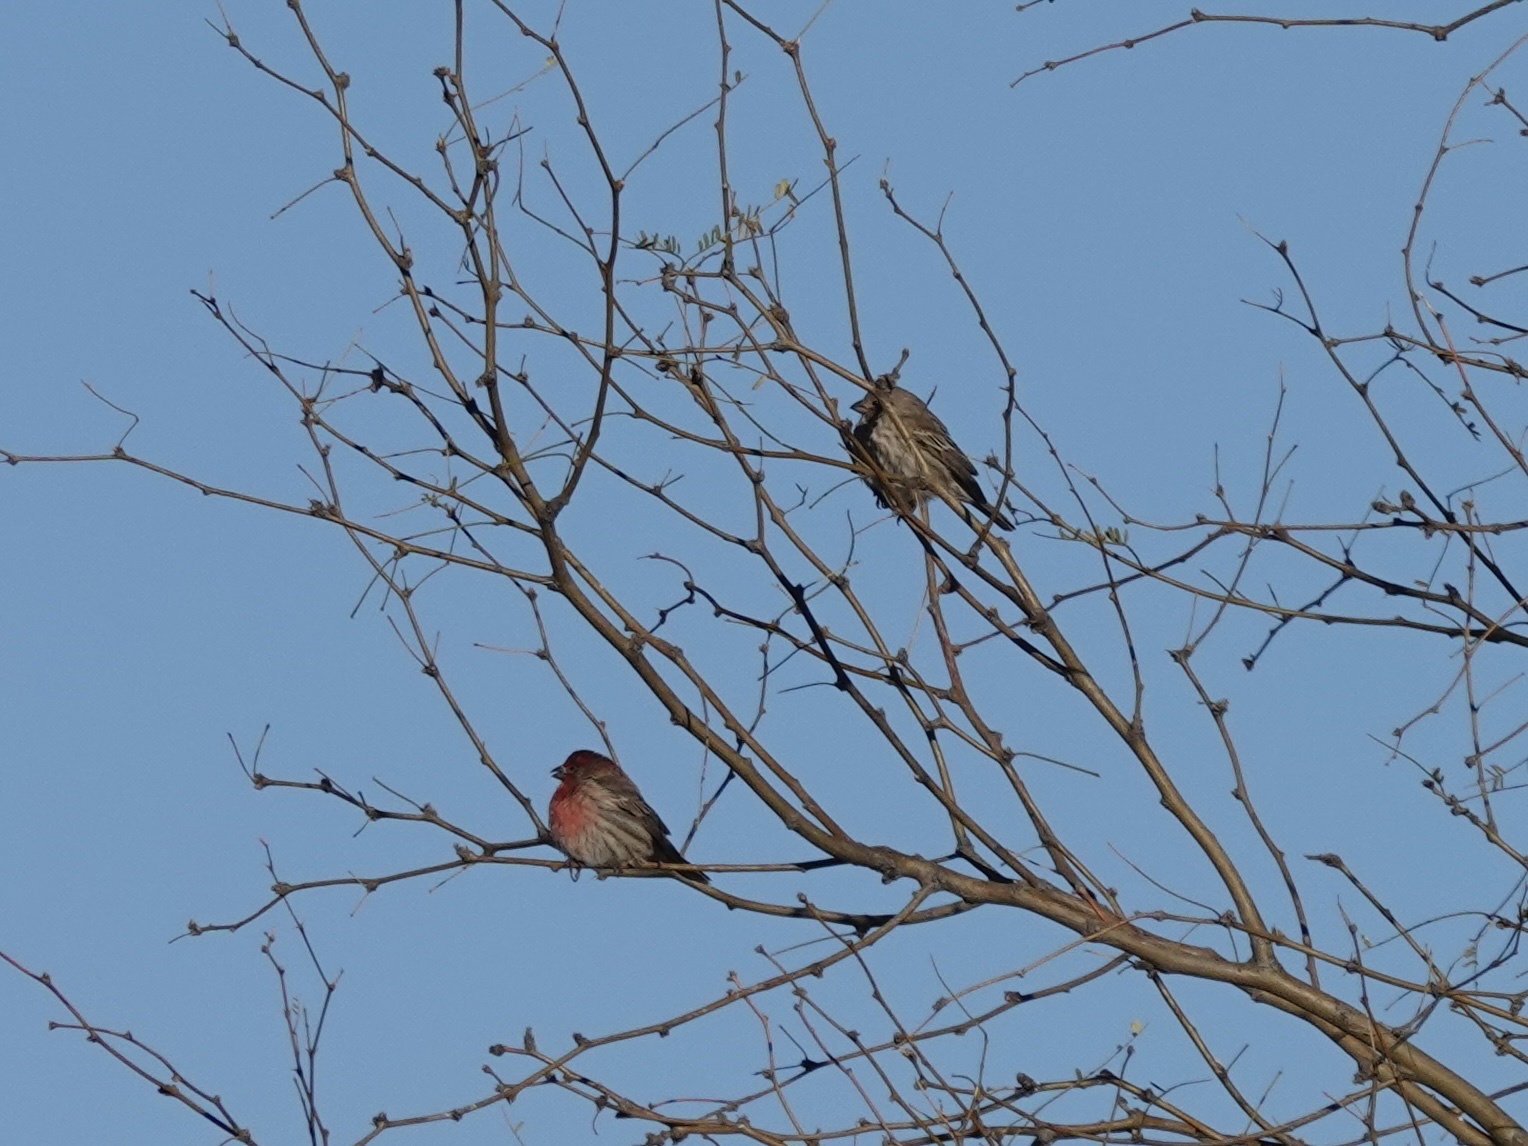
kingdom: Animalia
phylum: Chordata
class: Aves
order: Passeriformes
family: Fringillidae
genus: Haemorhous
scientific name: Haemorhous mexicanus
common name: House finch
